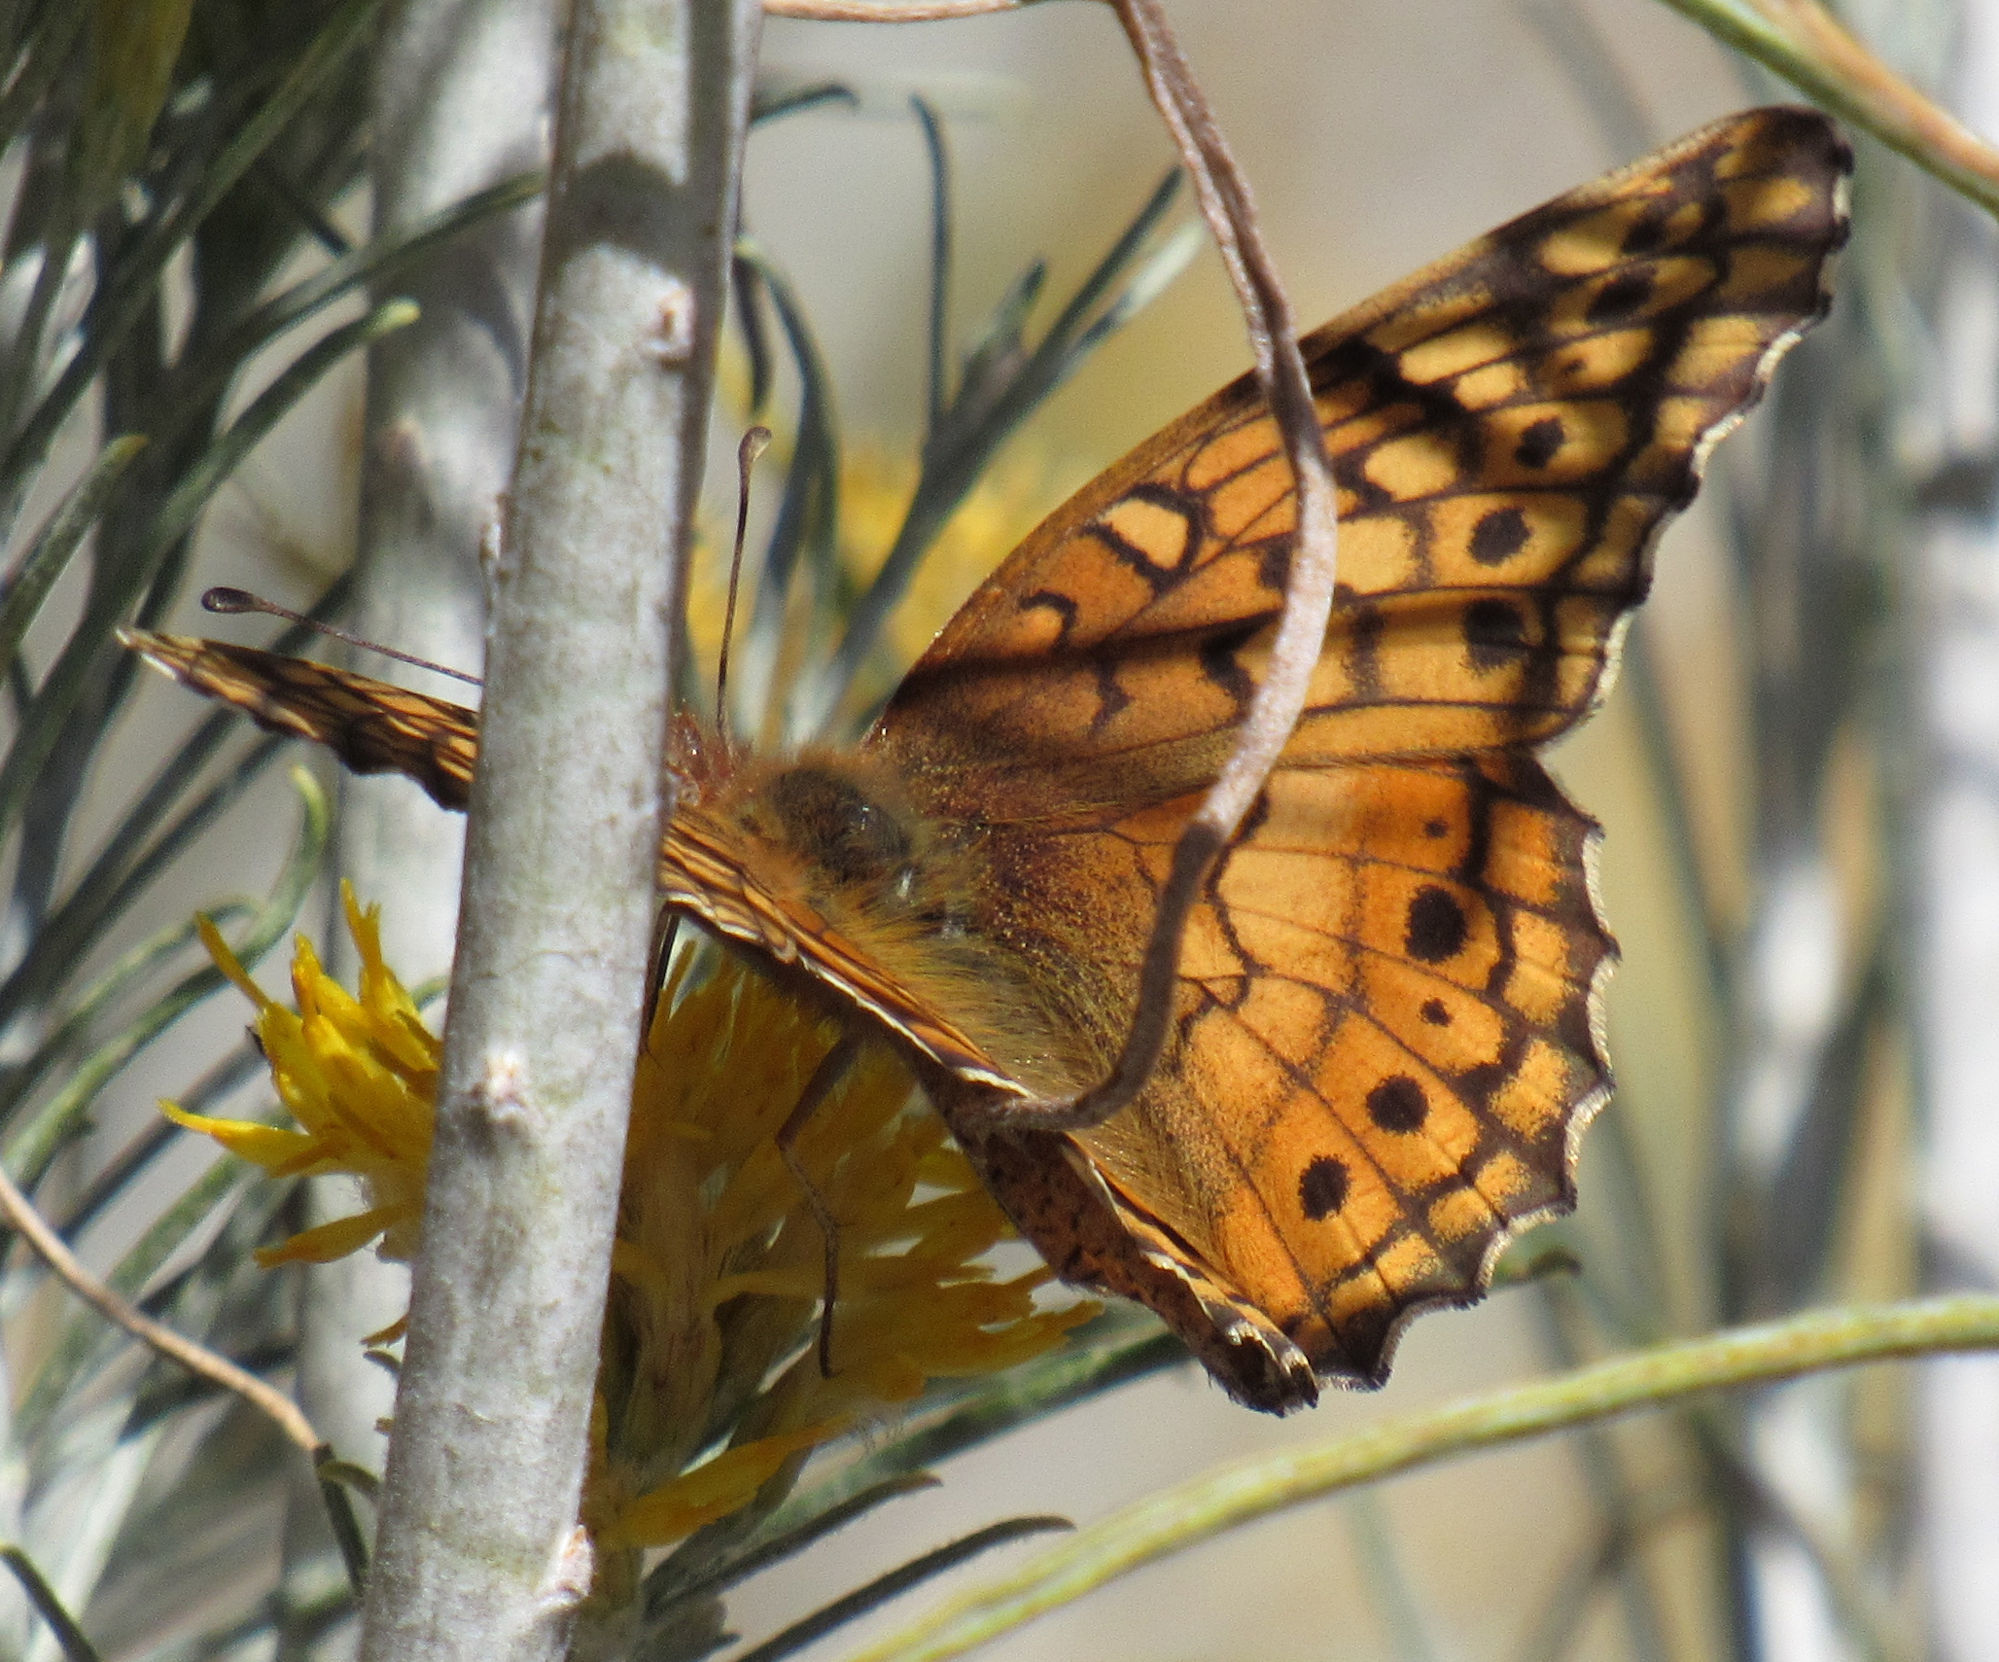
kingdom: Animalia
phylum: Arthropoda
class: Insecta
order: Lepidoptera
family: Nymphalidae
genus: Euptoieta
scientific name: Euptoieta claudia
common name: Variegated fritillary
